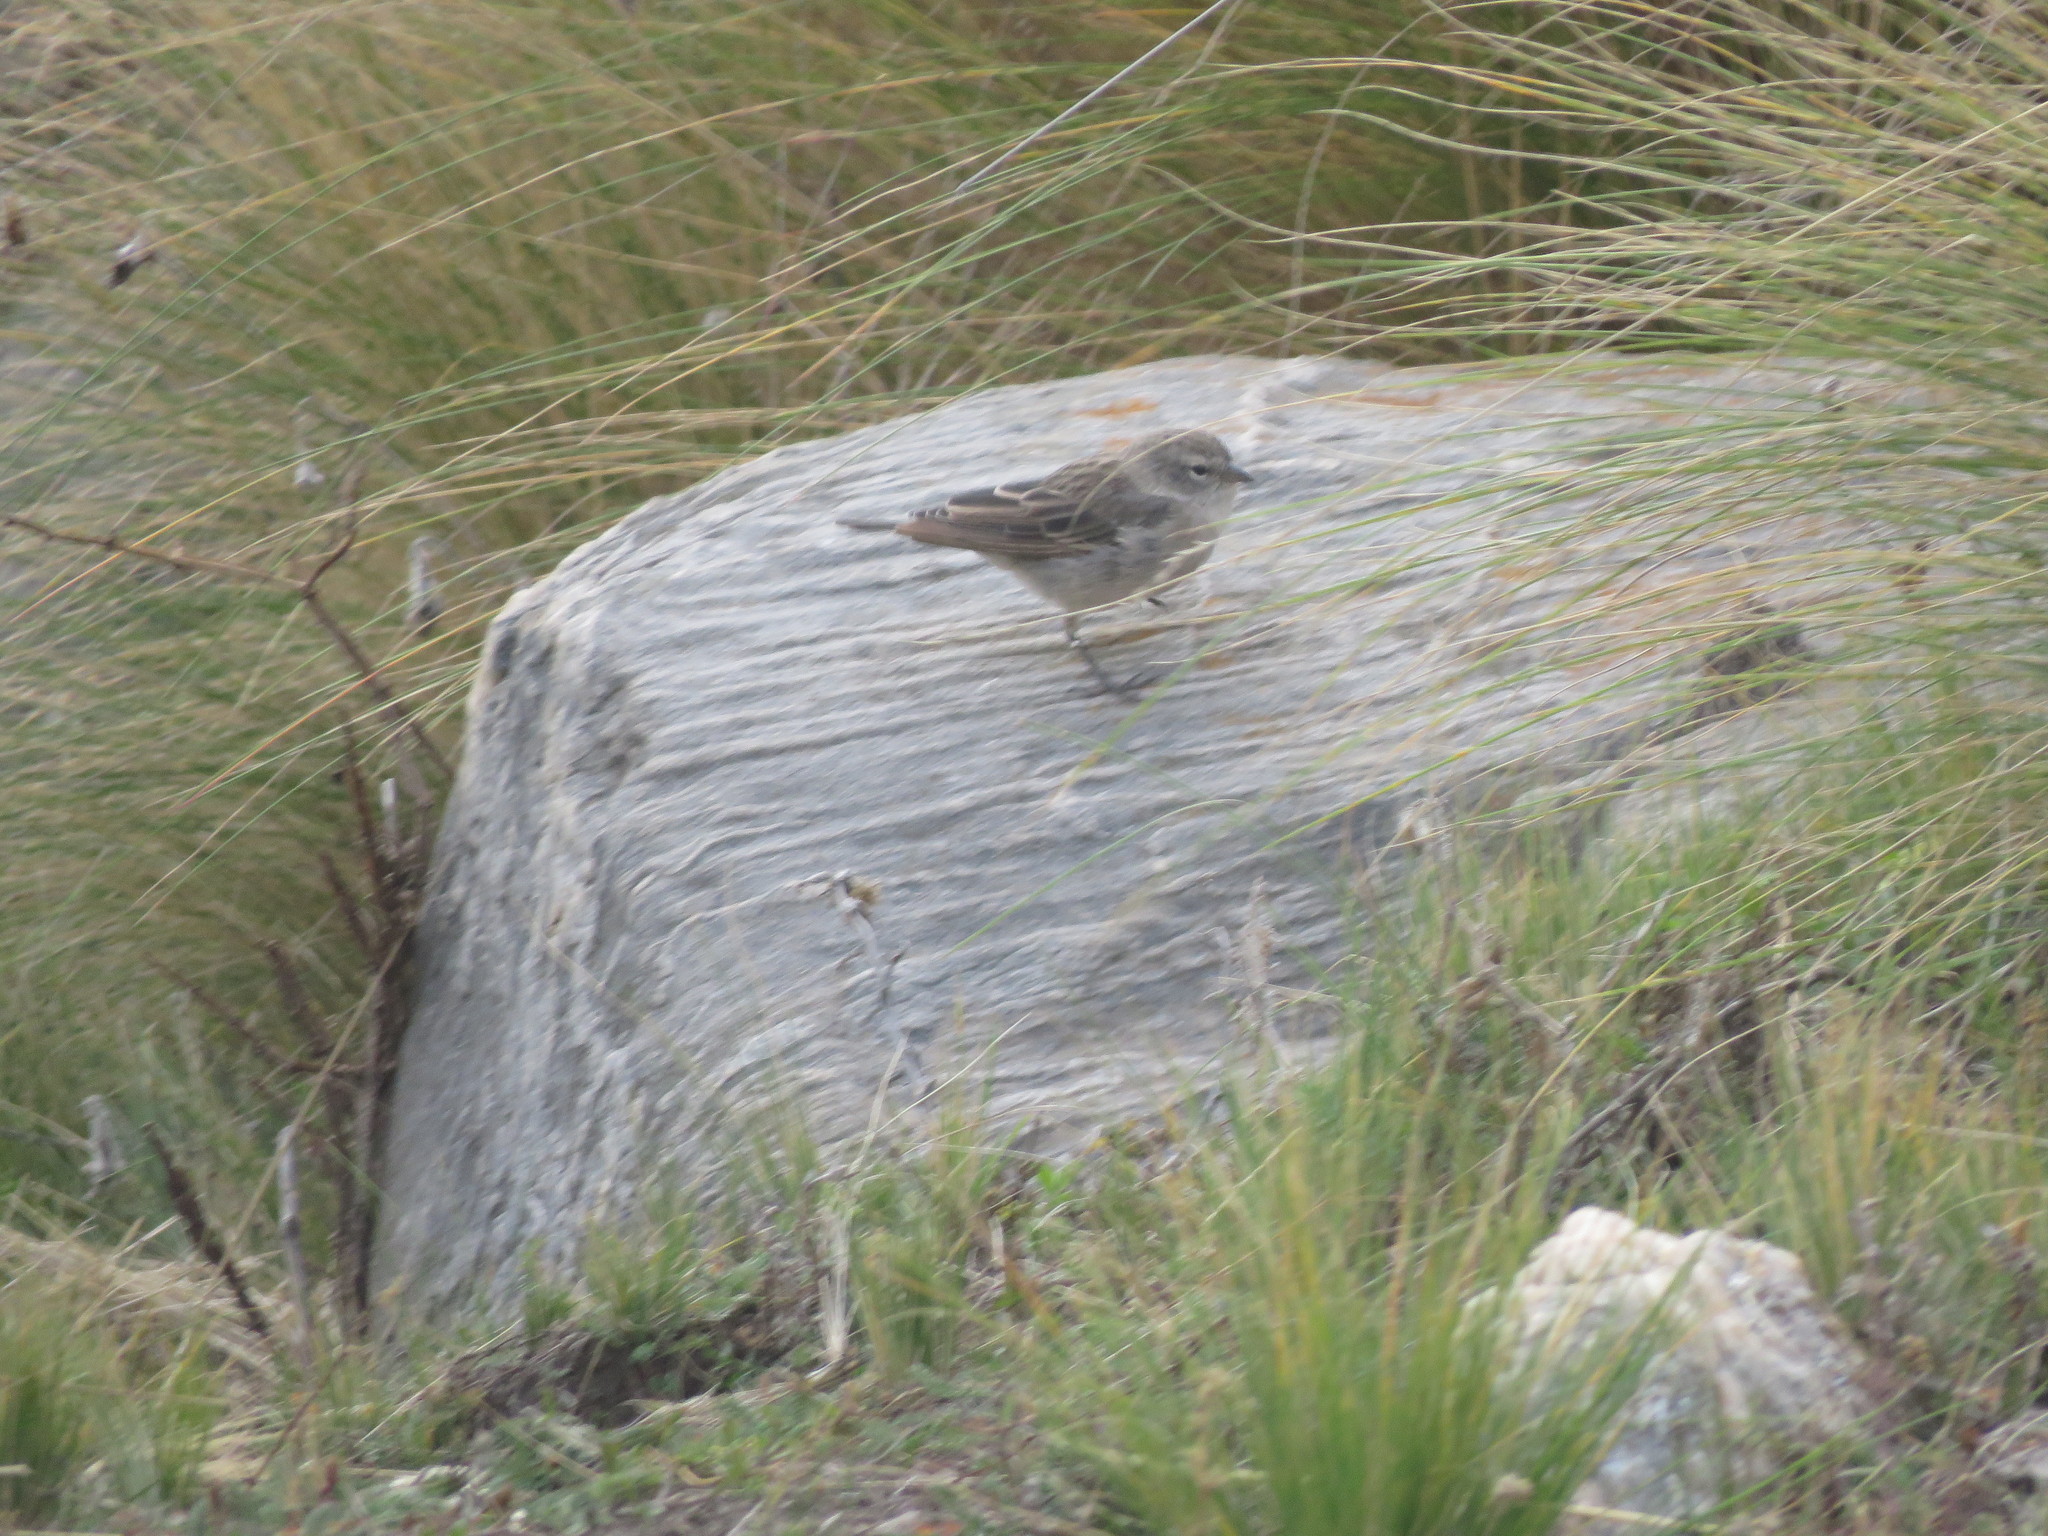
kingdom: Animalia
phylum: Chordata
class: Aves
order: Passeriformes
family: Thraupidae
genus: Geospizopsis
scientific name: Geospizopsis plebejus
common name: Ash-breasted sierra-finch
